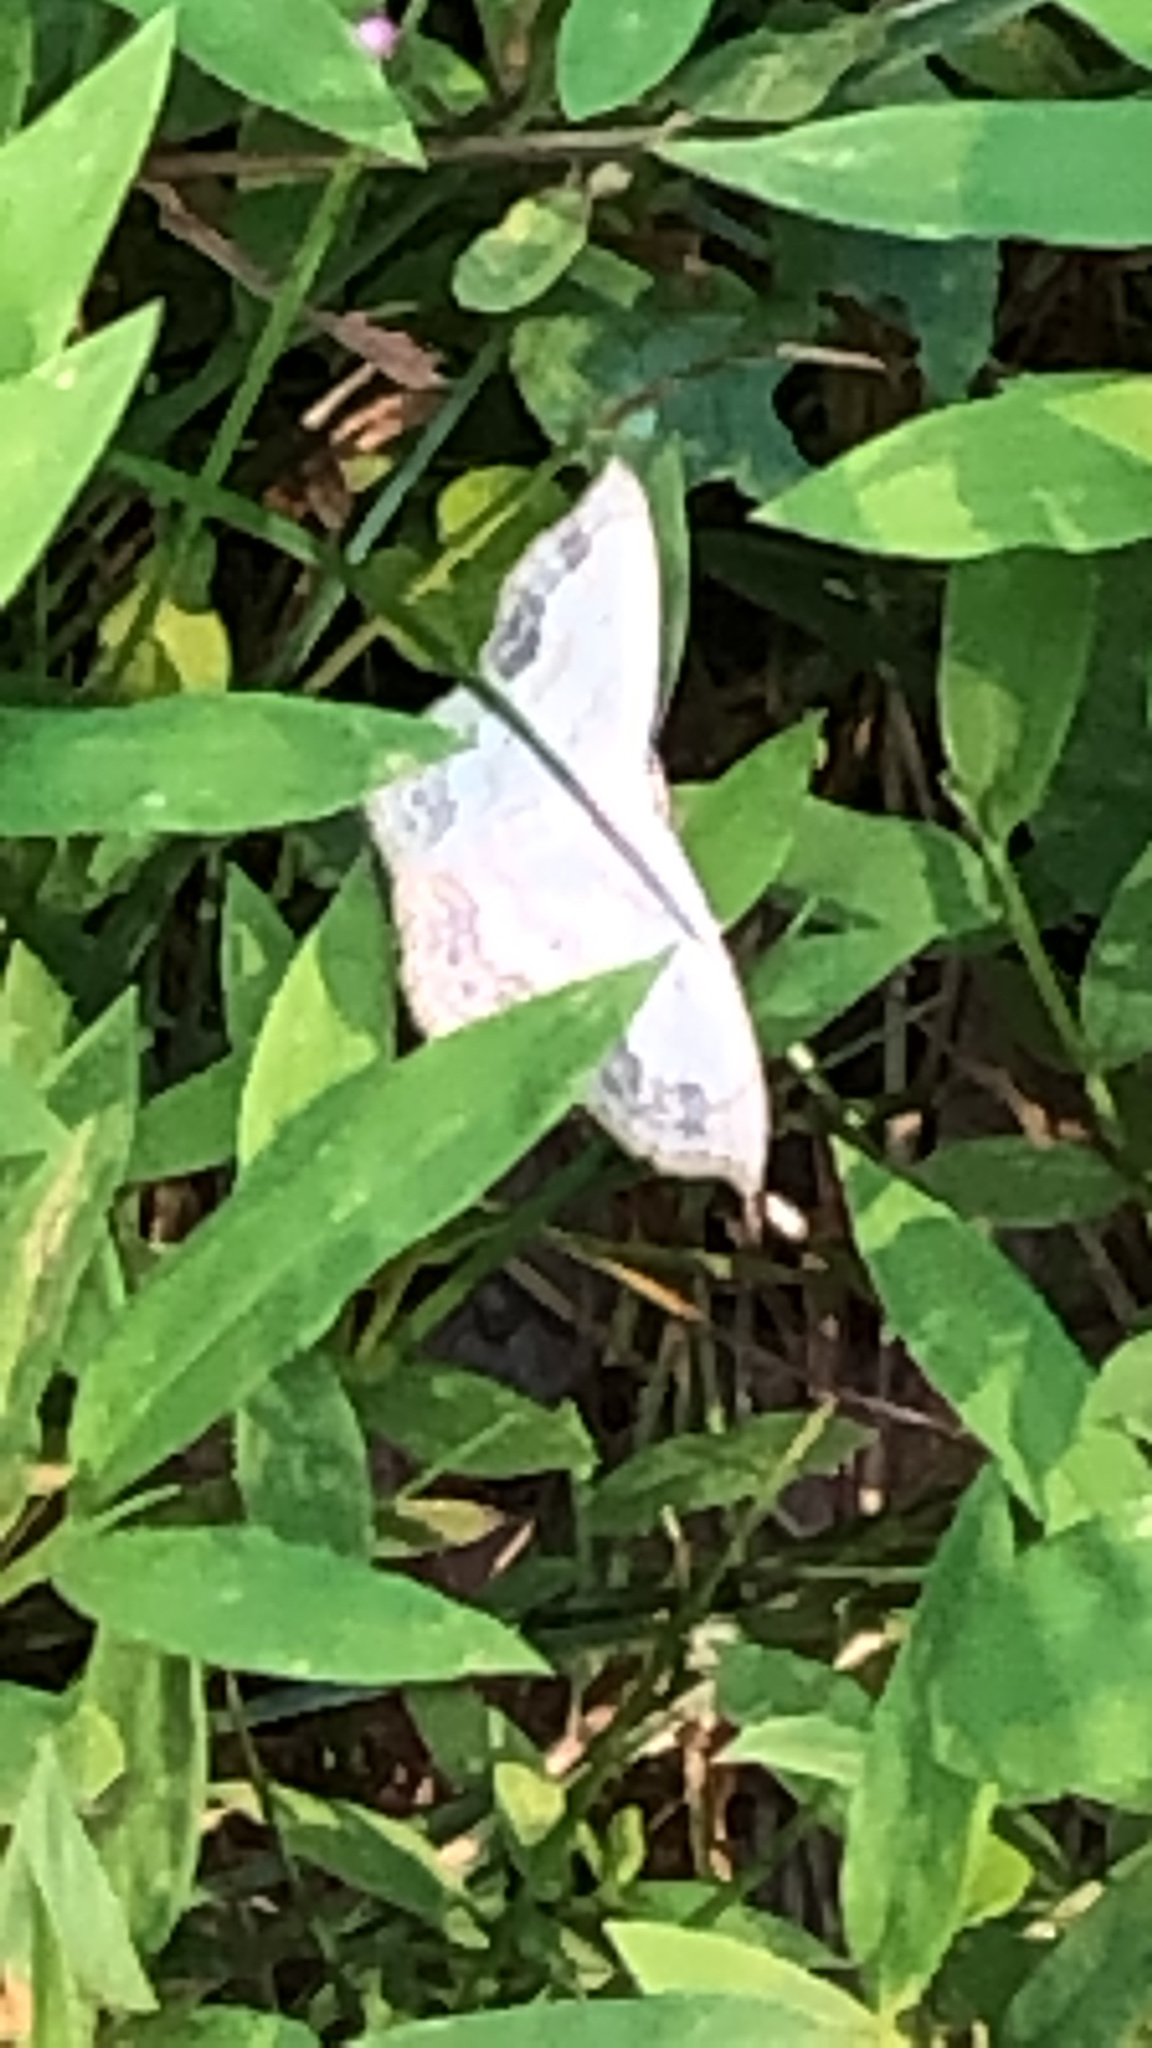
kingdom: Animalia
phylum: Arthropoda
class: Insecta
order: Lepidoptera
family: Geometridae
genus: Scopula
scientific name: Scopula limboundata
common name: Large lace border
